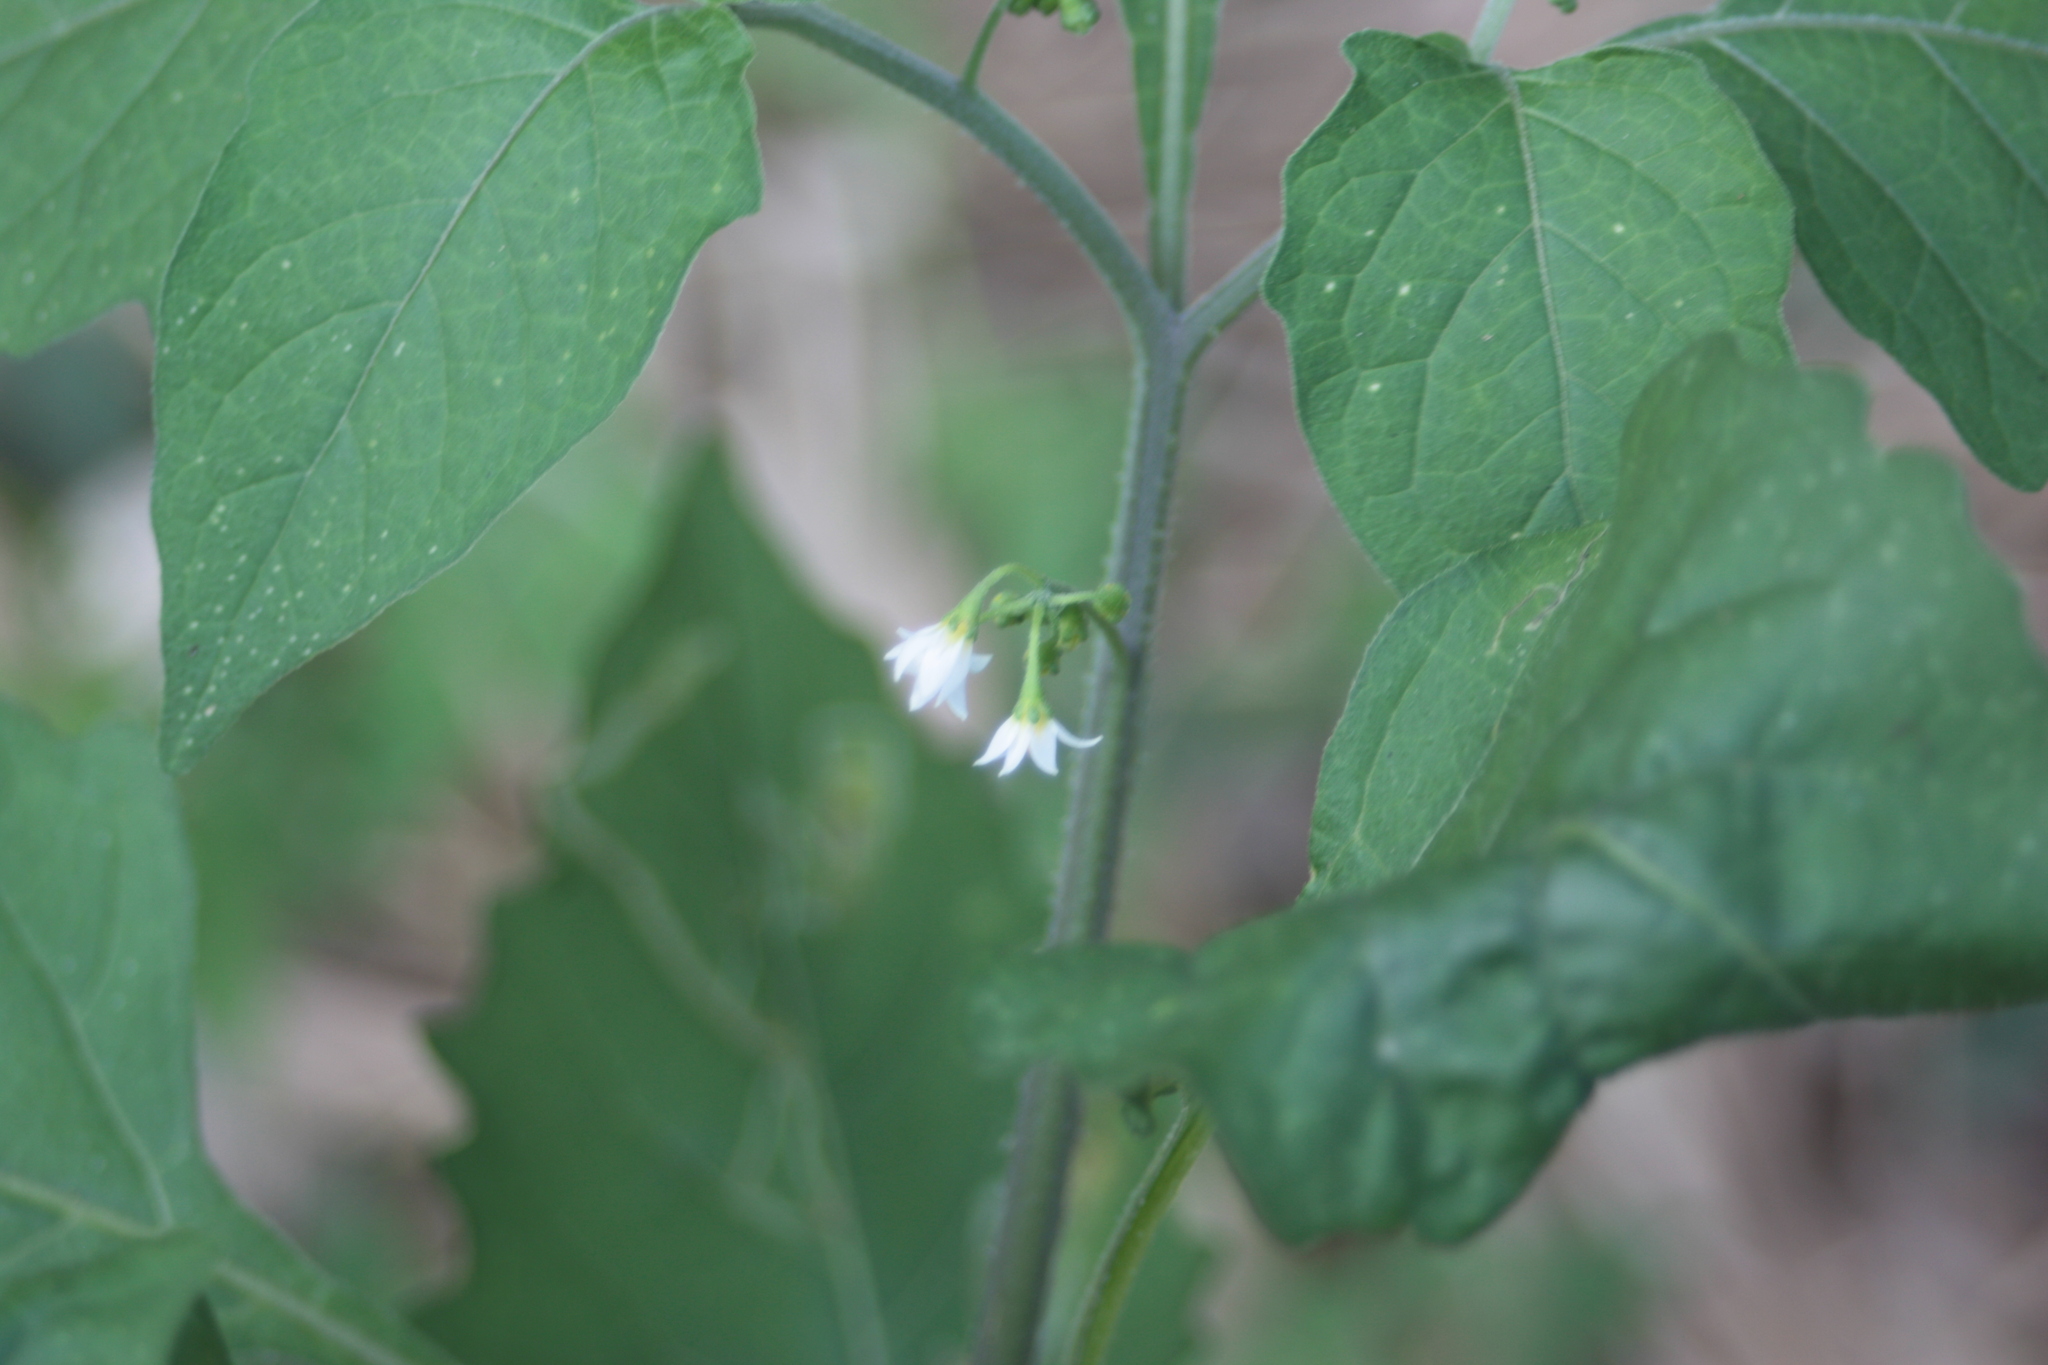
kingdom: Plantae
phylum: Tracheophyta
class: Magnoliopsida
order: Solanales
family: Solanaceae
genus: Solanum
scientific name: Solanum
